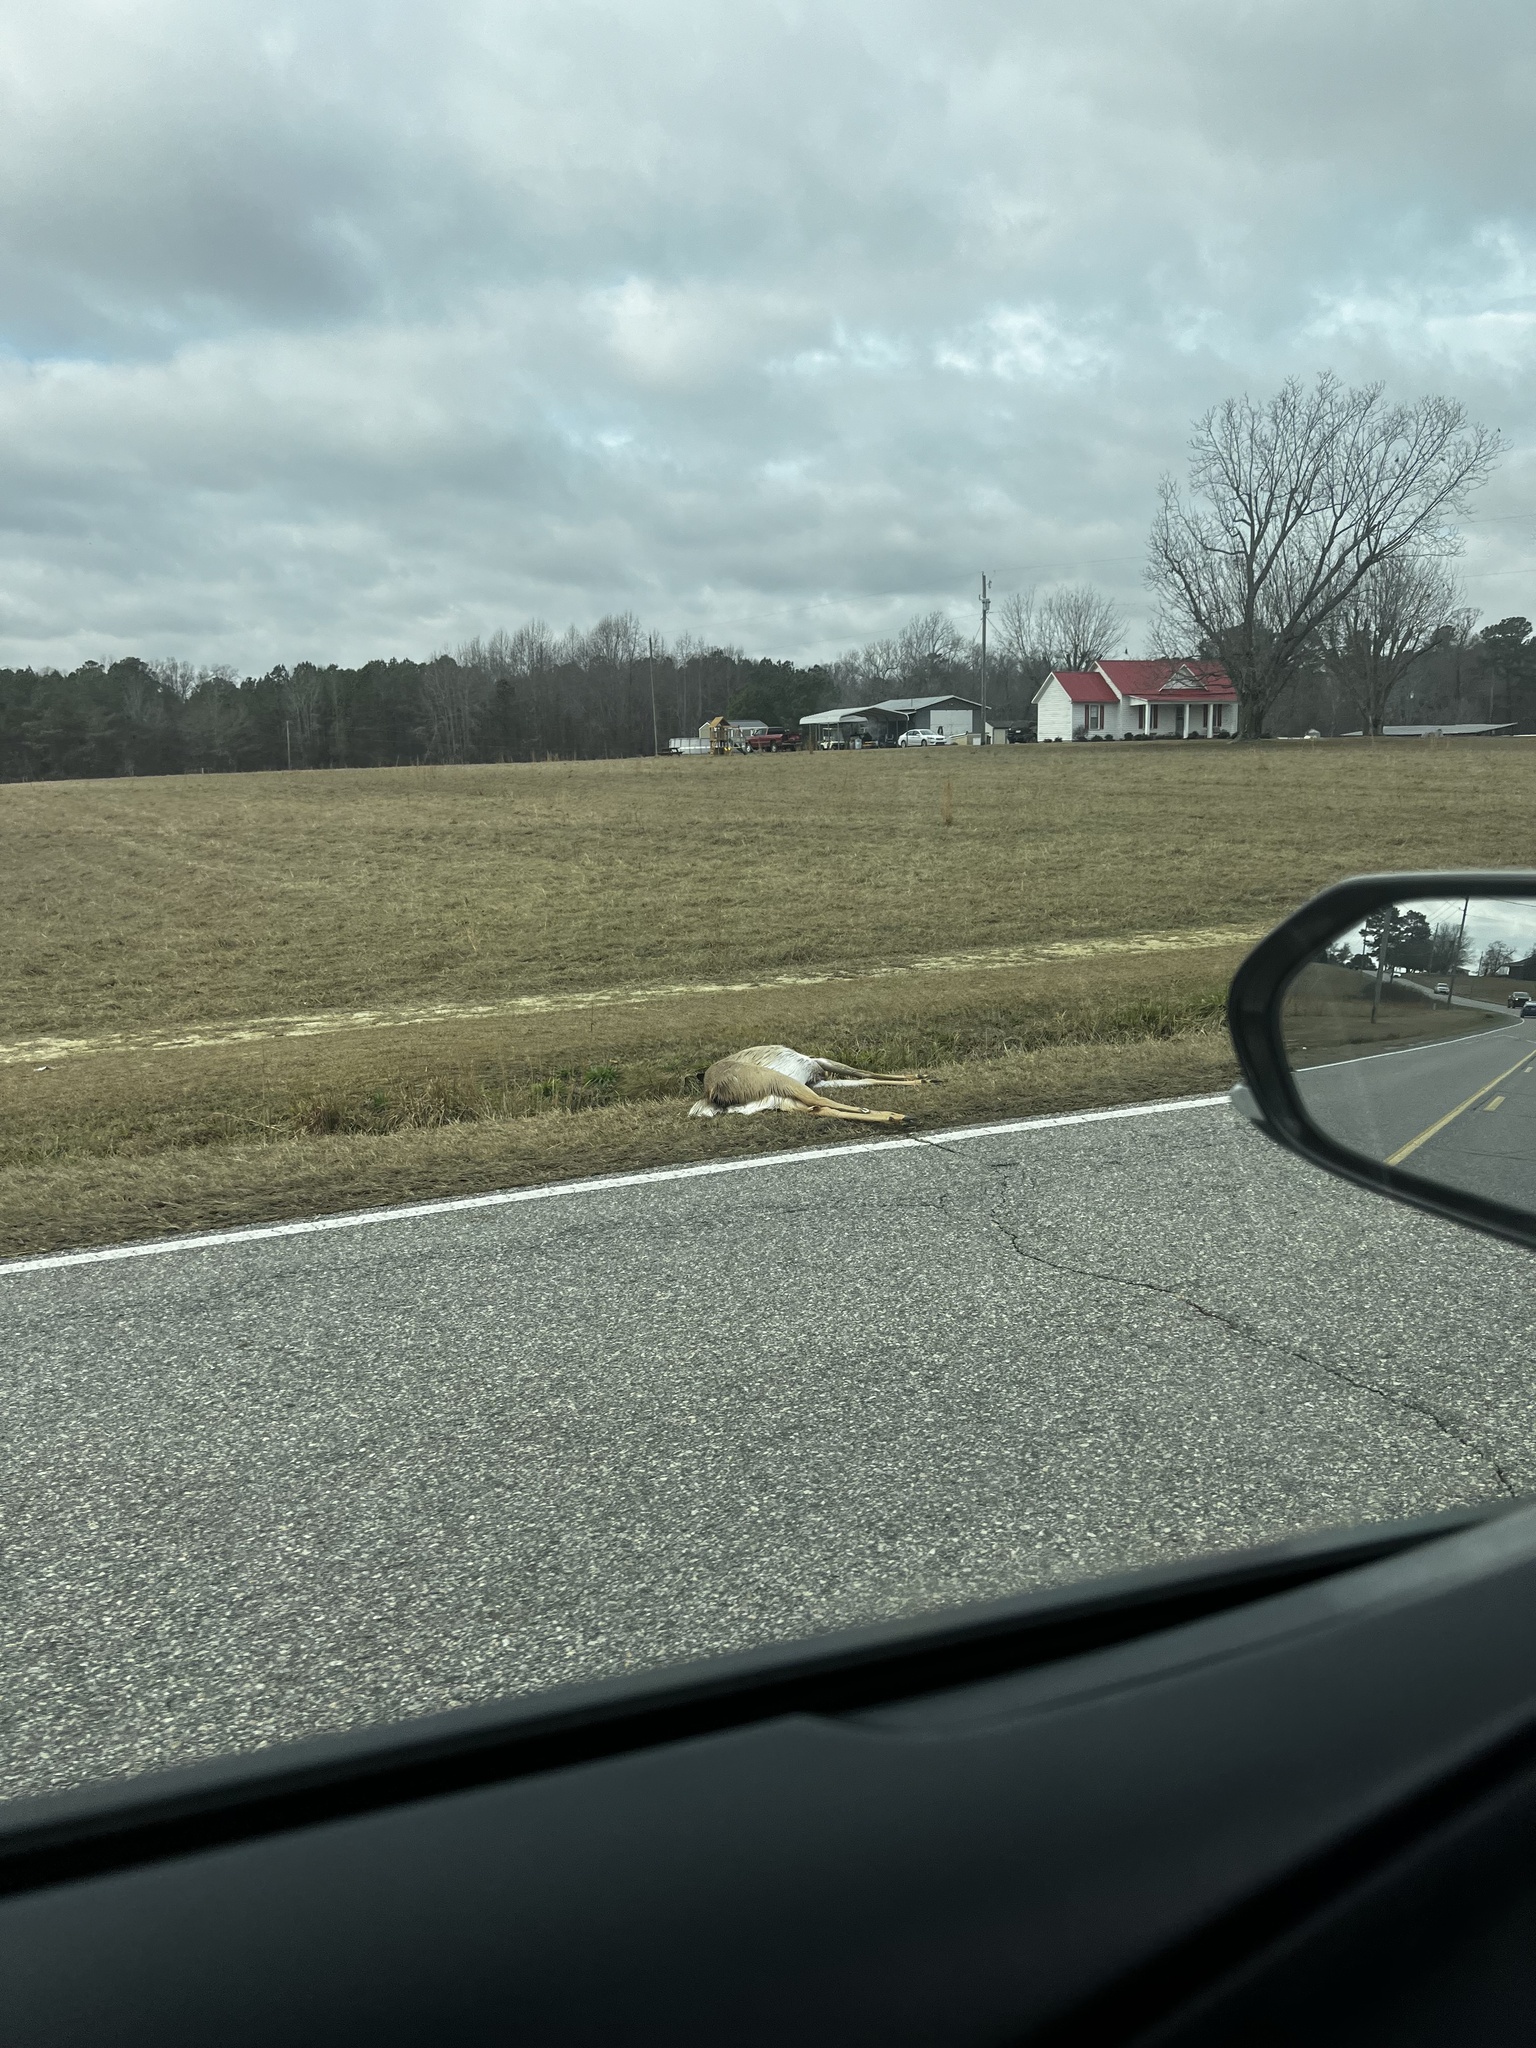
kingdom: Animalia
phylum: Chordata
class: Mammalia
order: Artiodactyla
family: Cervidae
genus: Odocoileus
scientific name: Odocoileus virginianus
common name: White-tailed deer
